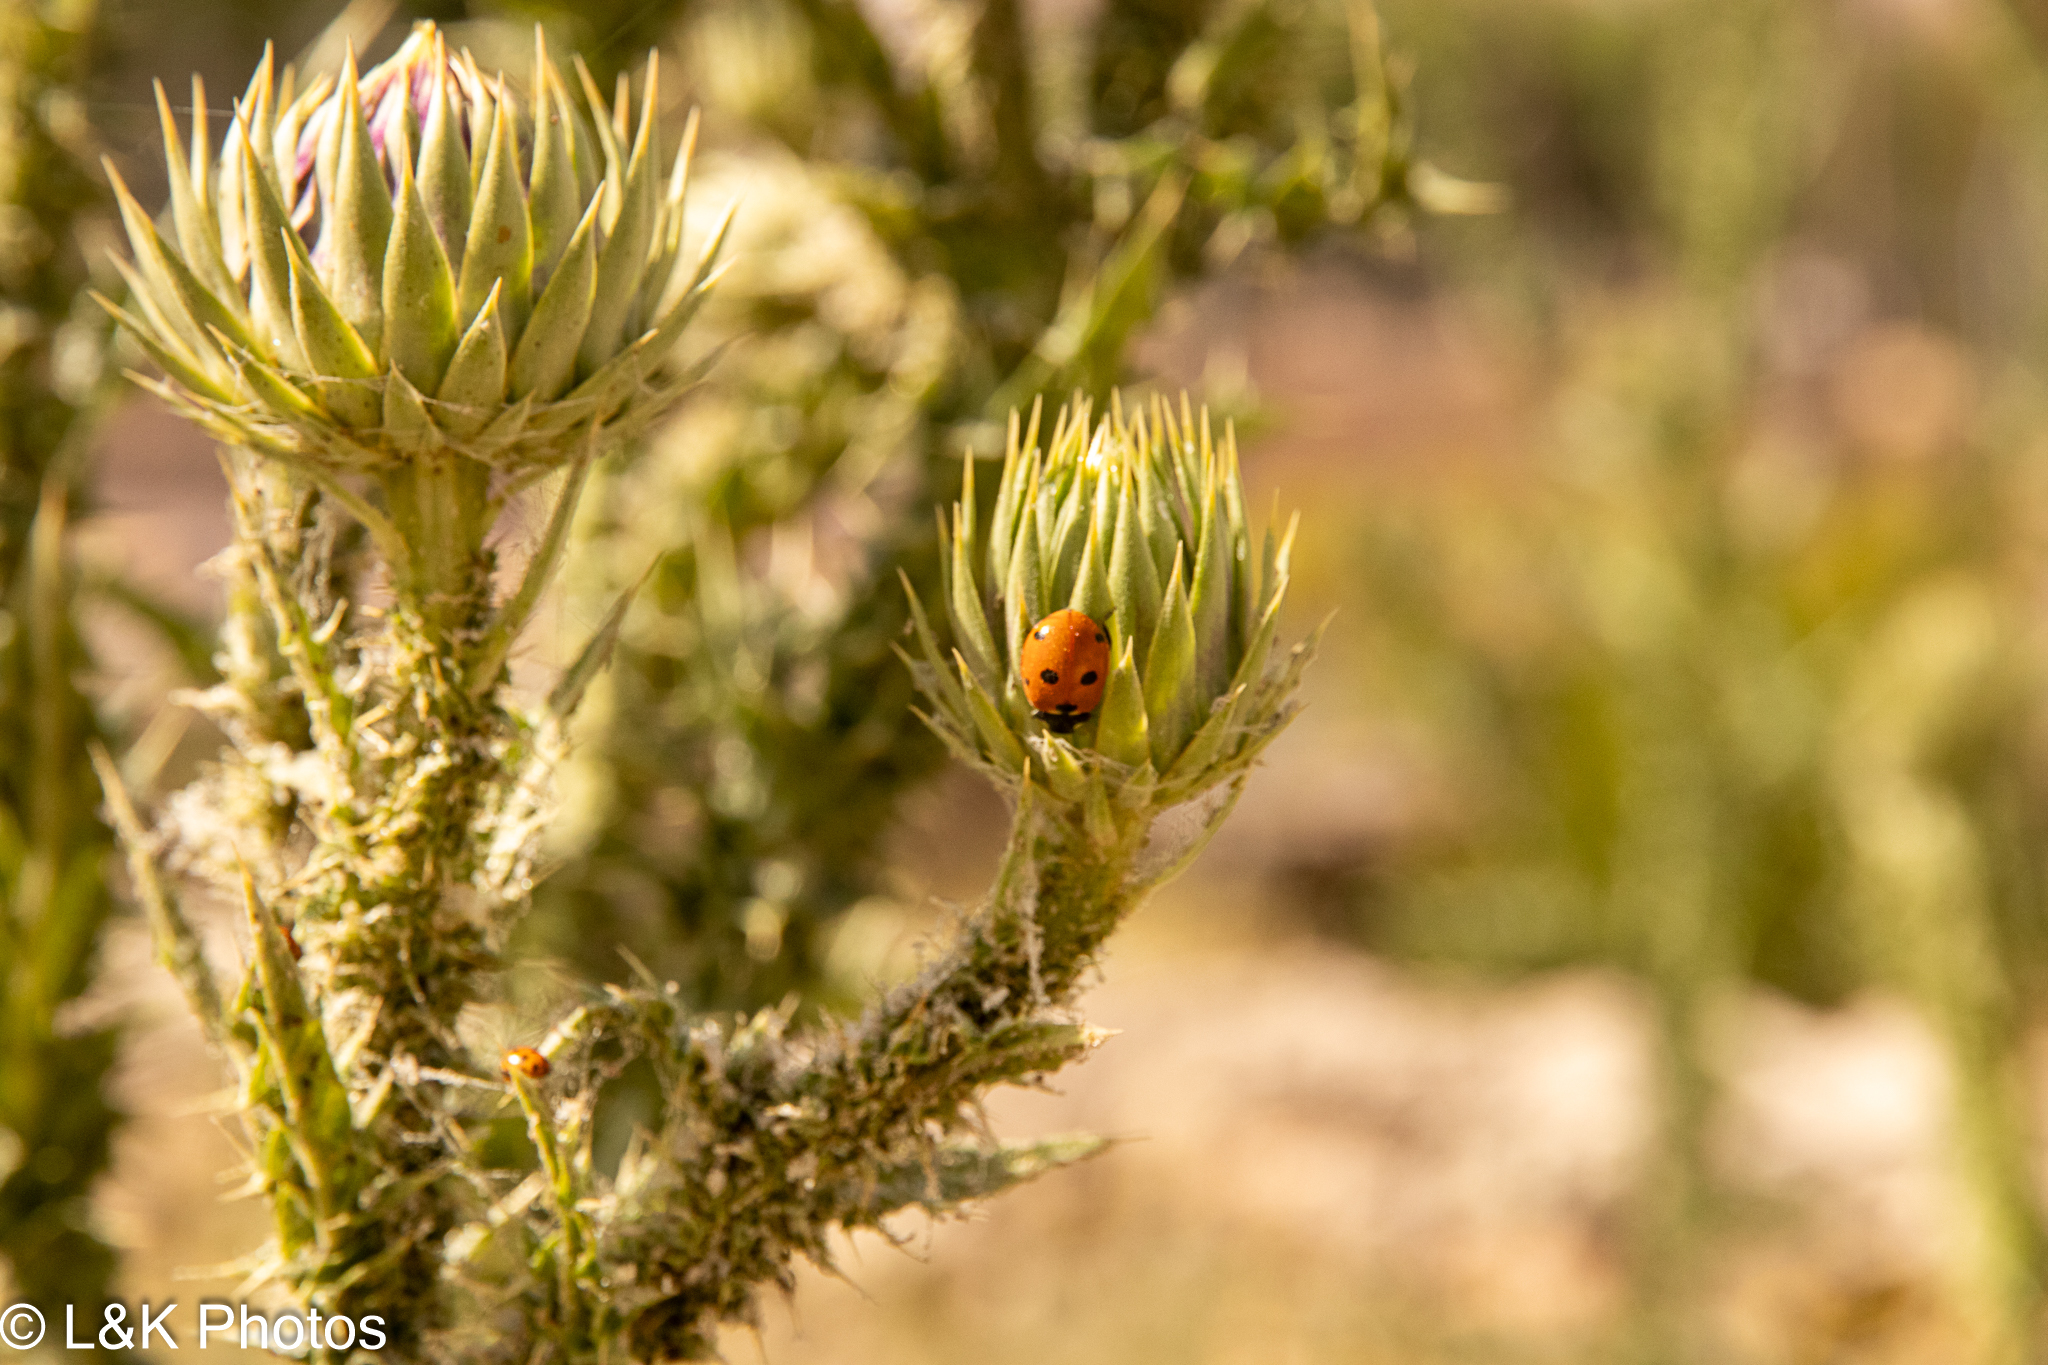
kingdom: Animalia
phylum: Arthropoda
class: Insecta
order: Coleoptera
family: Coccinellidae
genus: Coccinella
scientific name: Coccinella septempunctata
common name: Sevenspotted lady beetle
